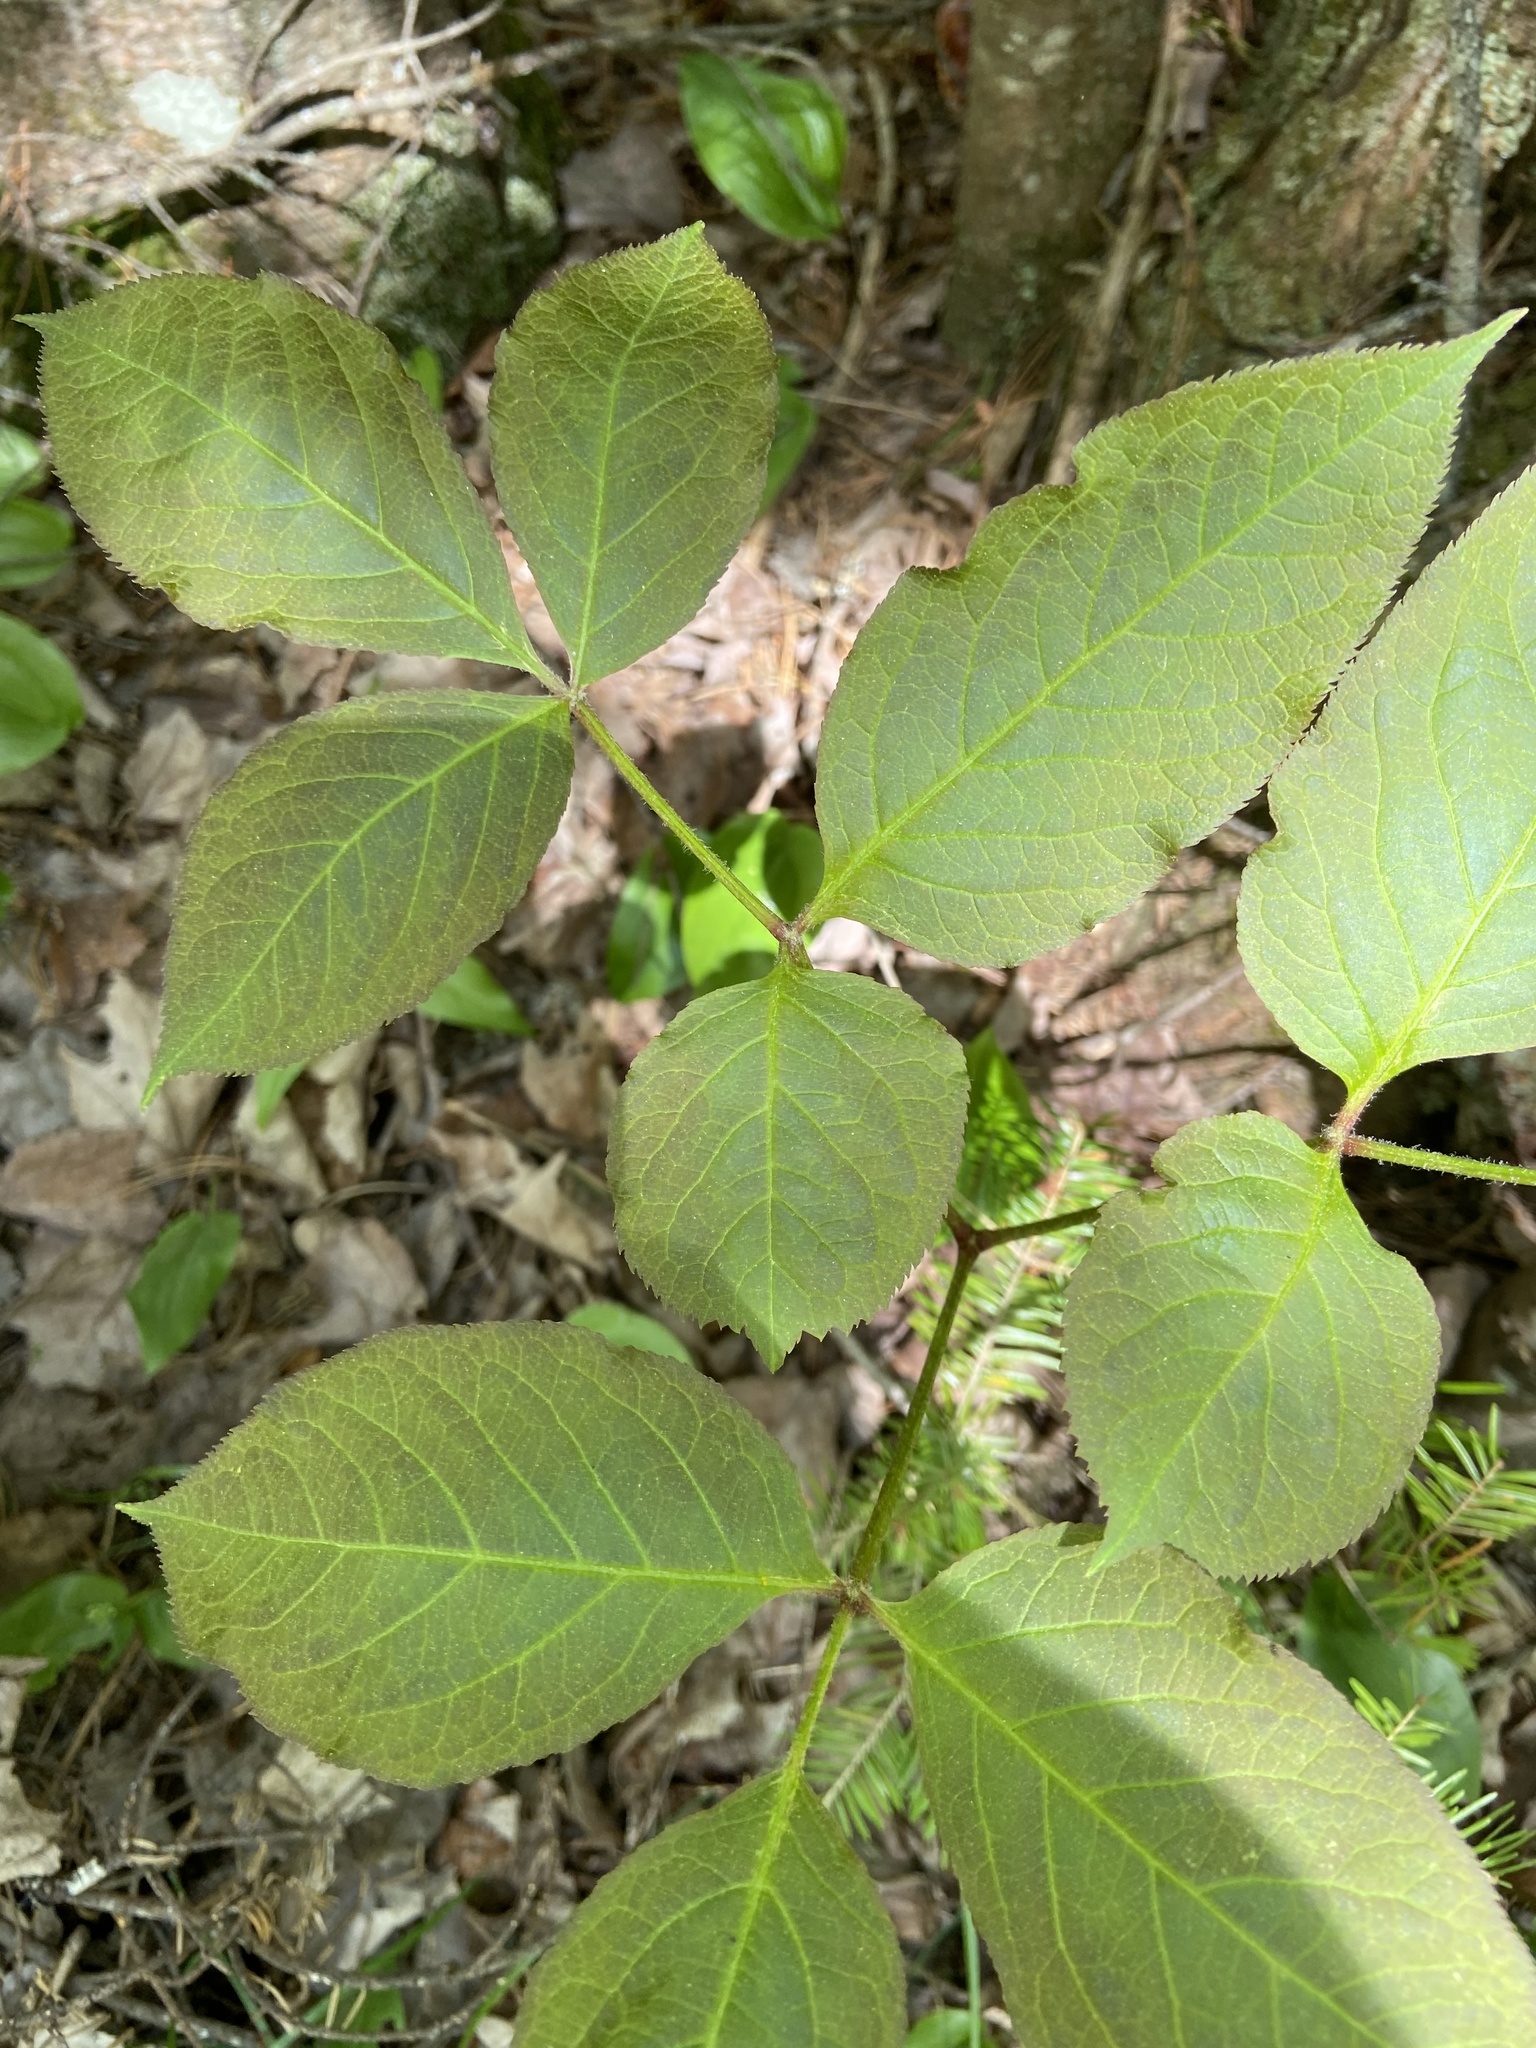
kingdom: Plantae
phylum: Tracheophyta
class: Magnoliopsida
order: Apiales
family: Araliaceae
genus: Aralia
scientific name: Aralia nudicaulis
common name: Wild sarsaparilla
